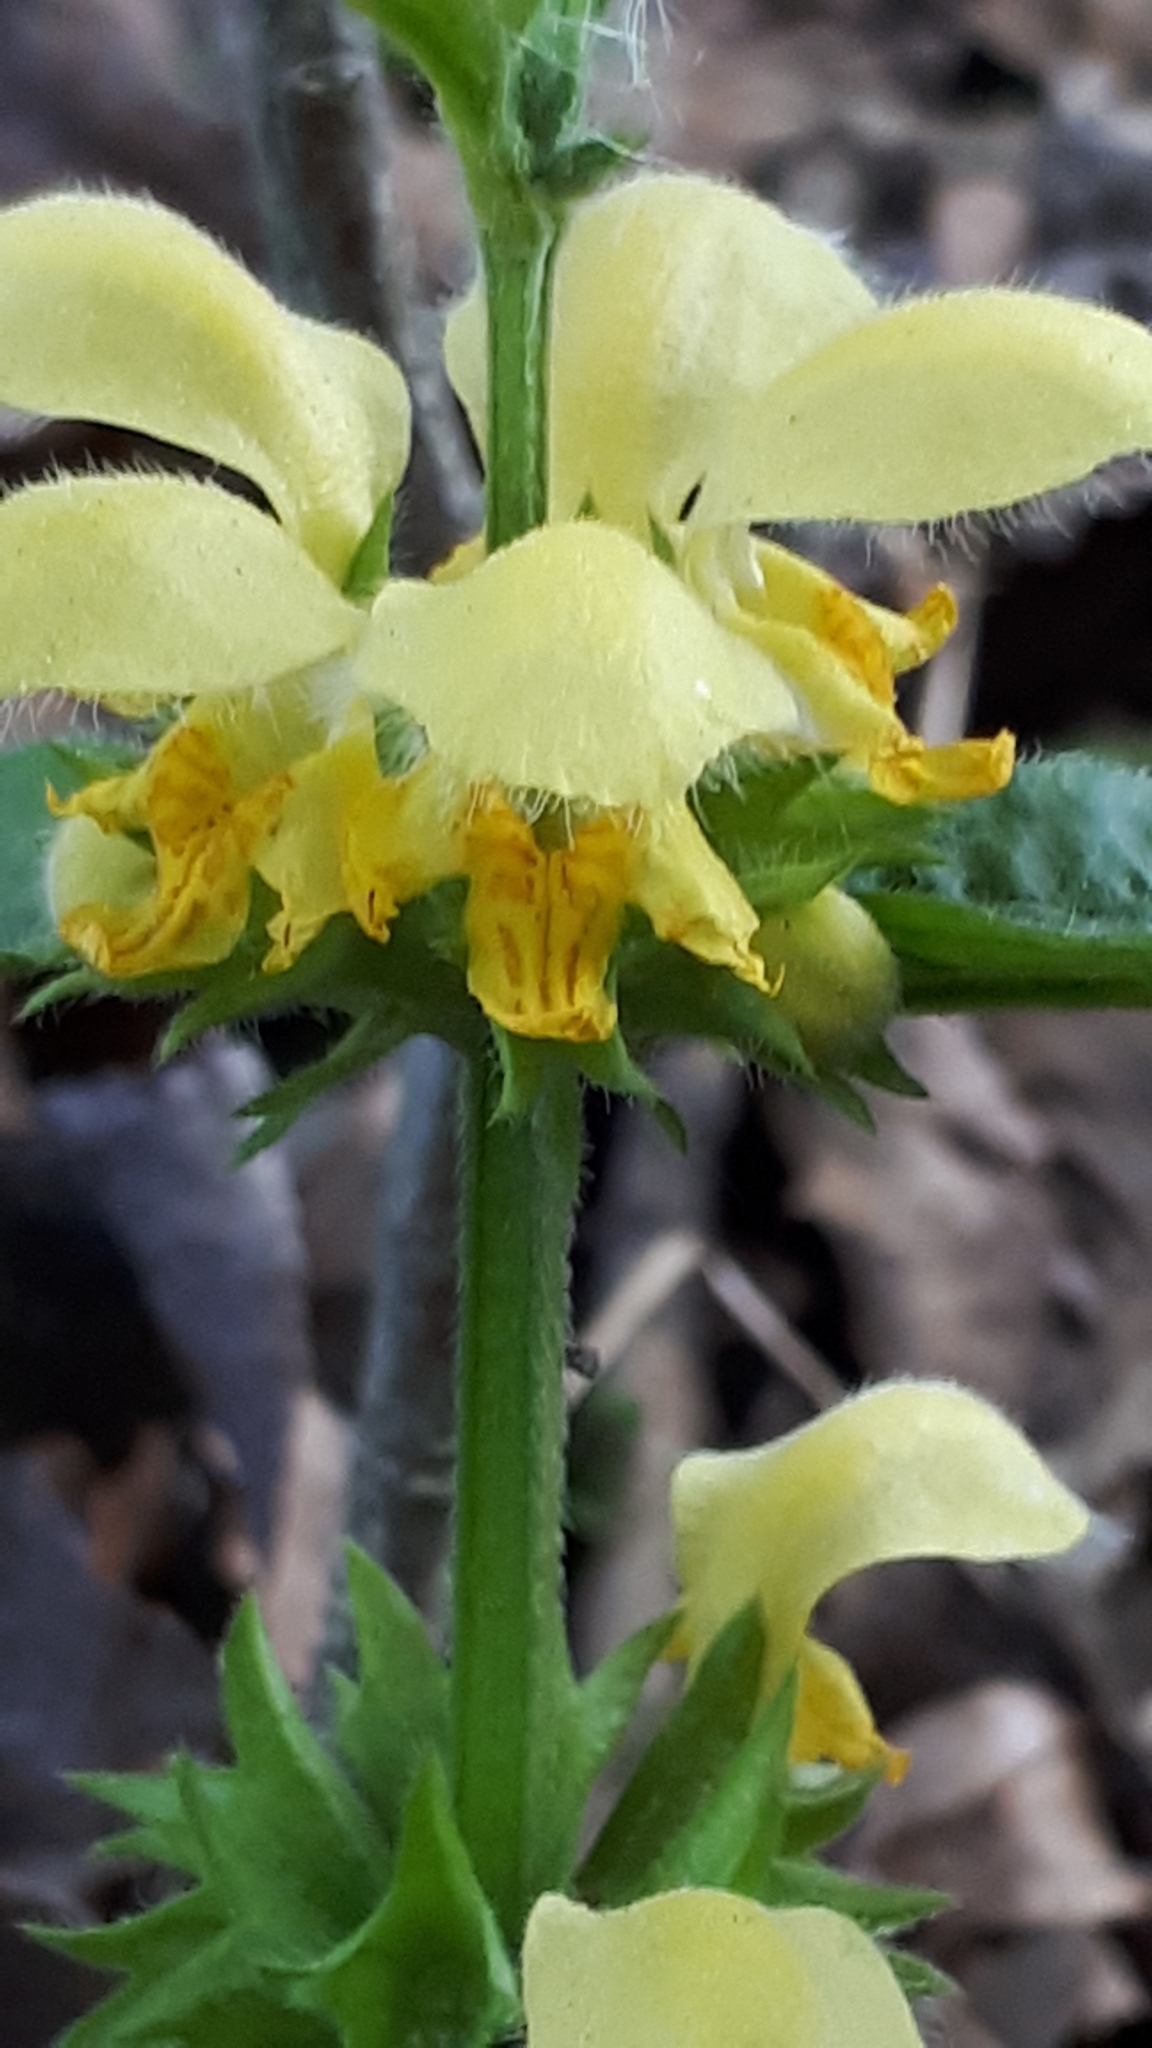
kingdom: Plantae
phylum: Tracheophyta
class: Magnoliopsida
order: Lamiales
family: Lamiaceae
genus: Lamium
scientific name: Lamium galeobdolon
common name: Yellow archangel
